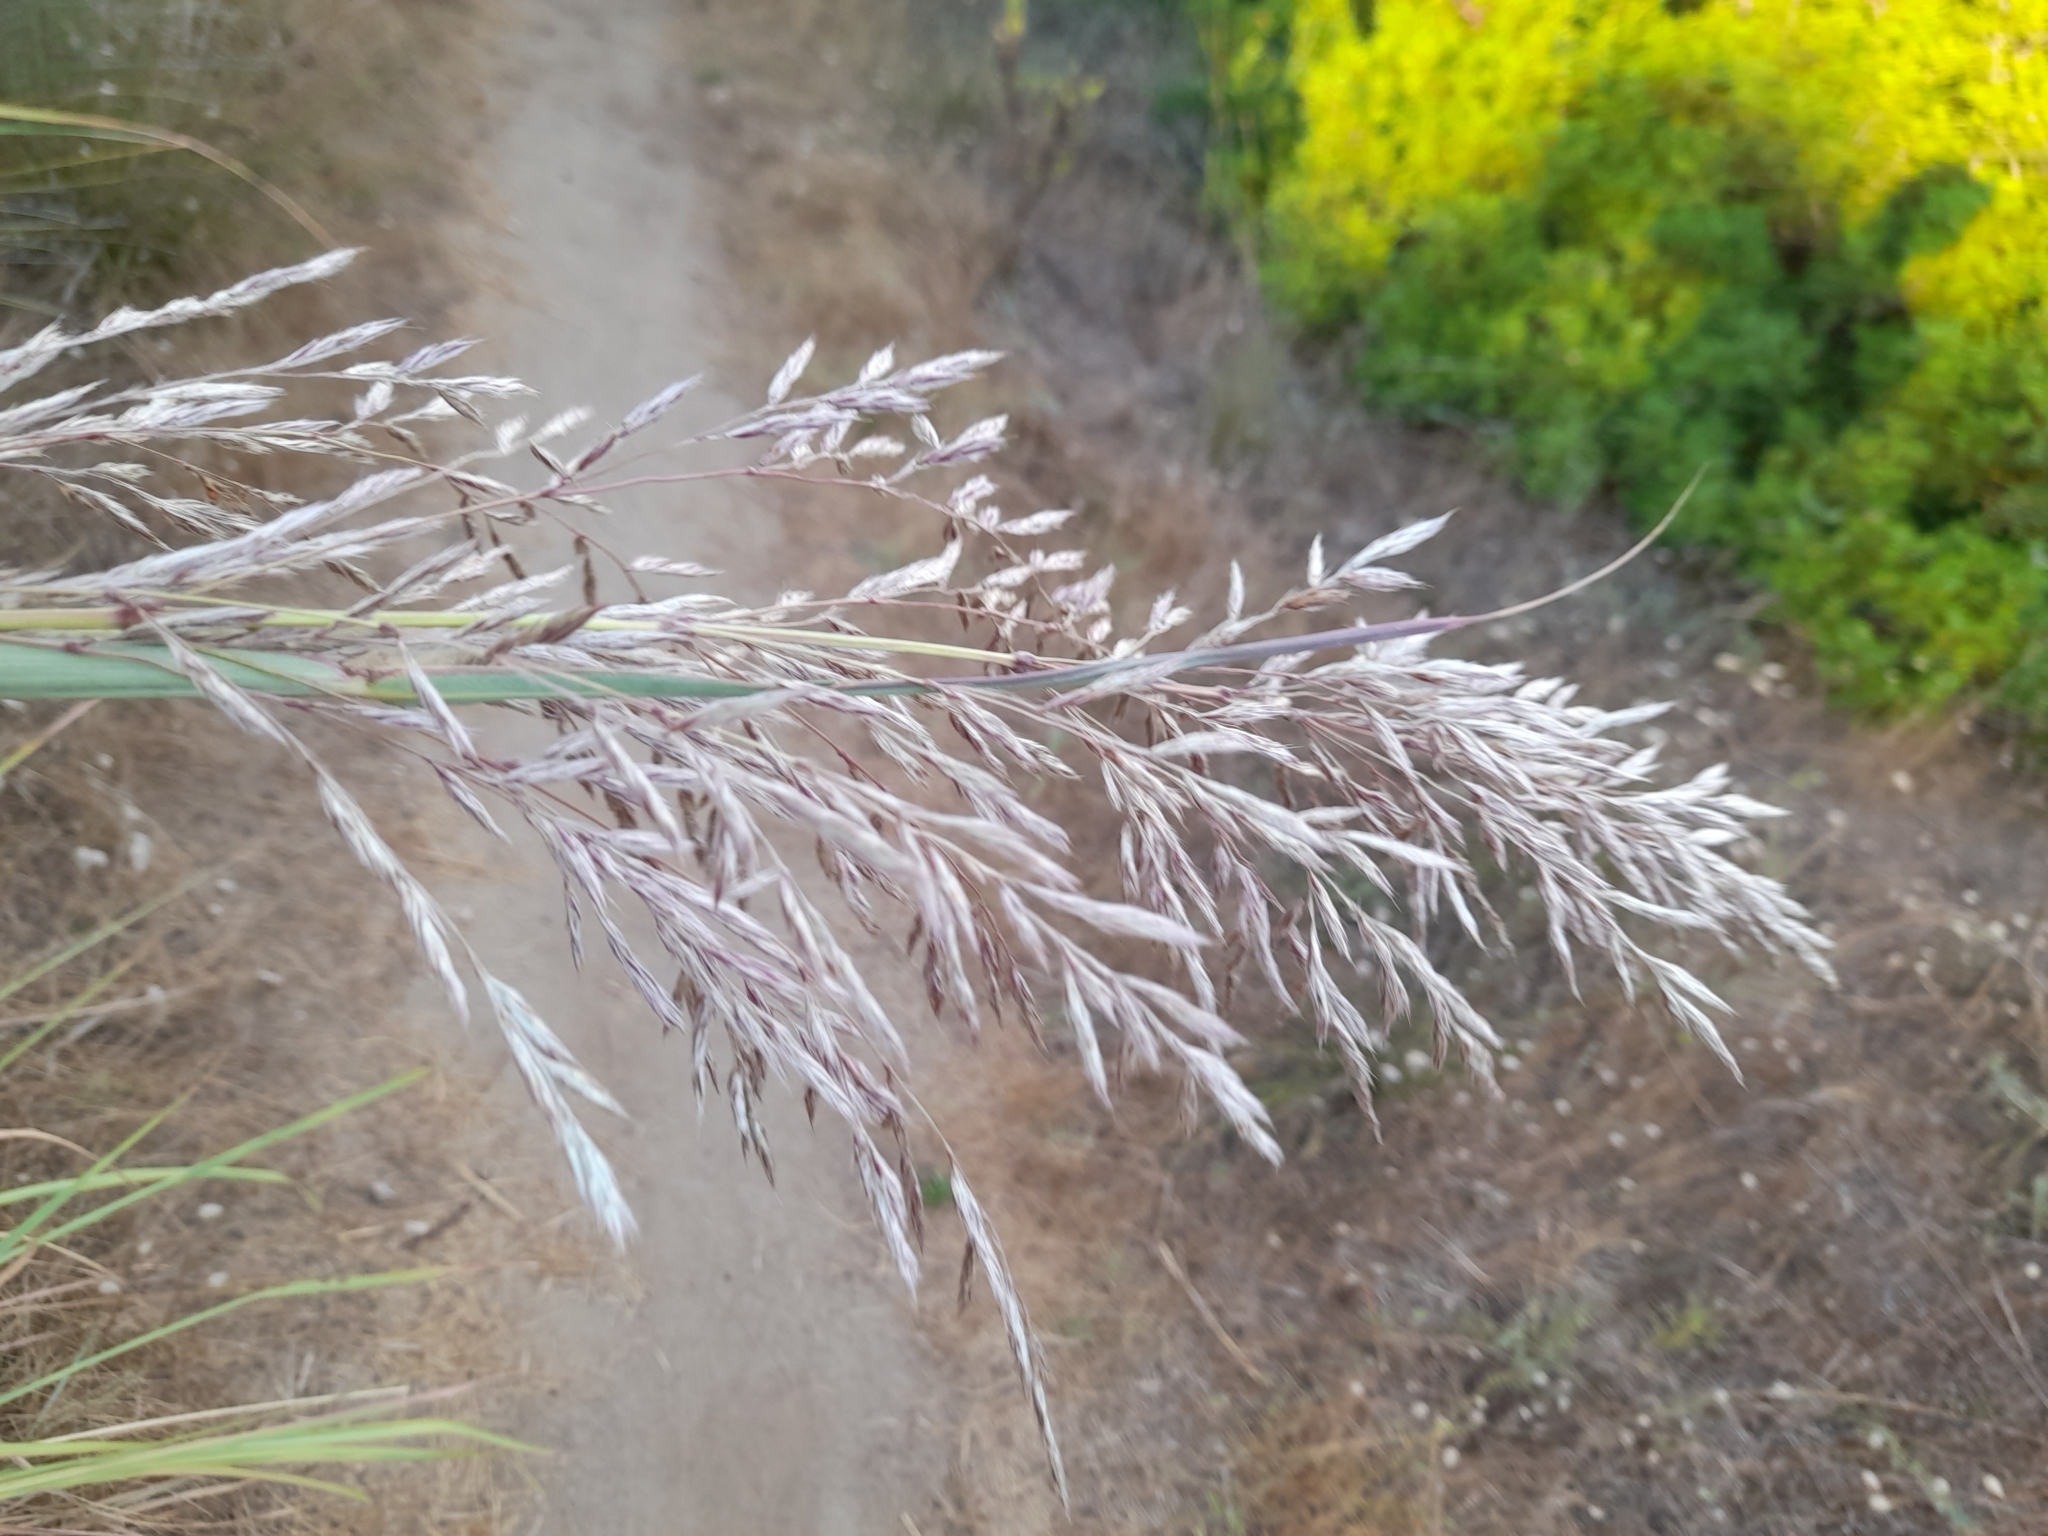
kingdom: Plantae
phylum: Tracheophyta
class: Liliopsida
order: Poales
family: Poaceae
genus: Tripidium
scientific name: Tripidium ravennae
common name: Ravenna grass
